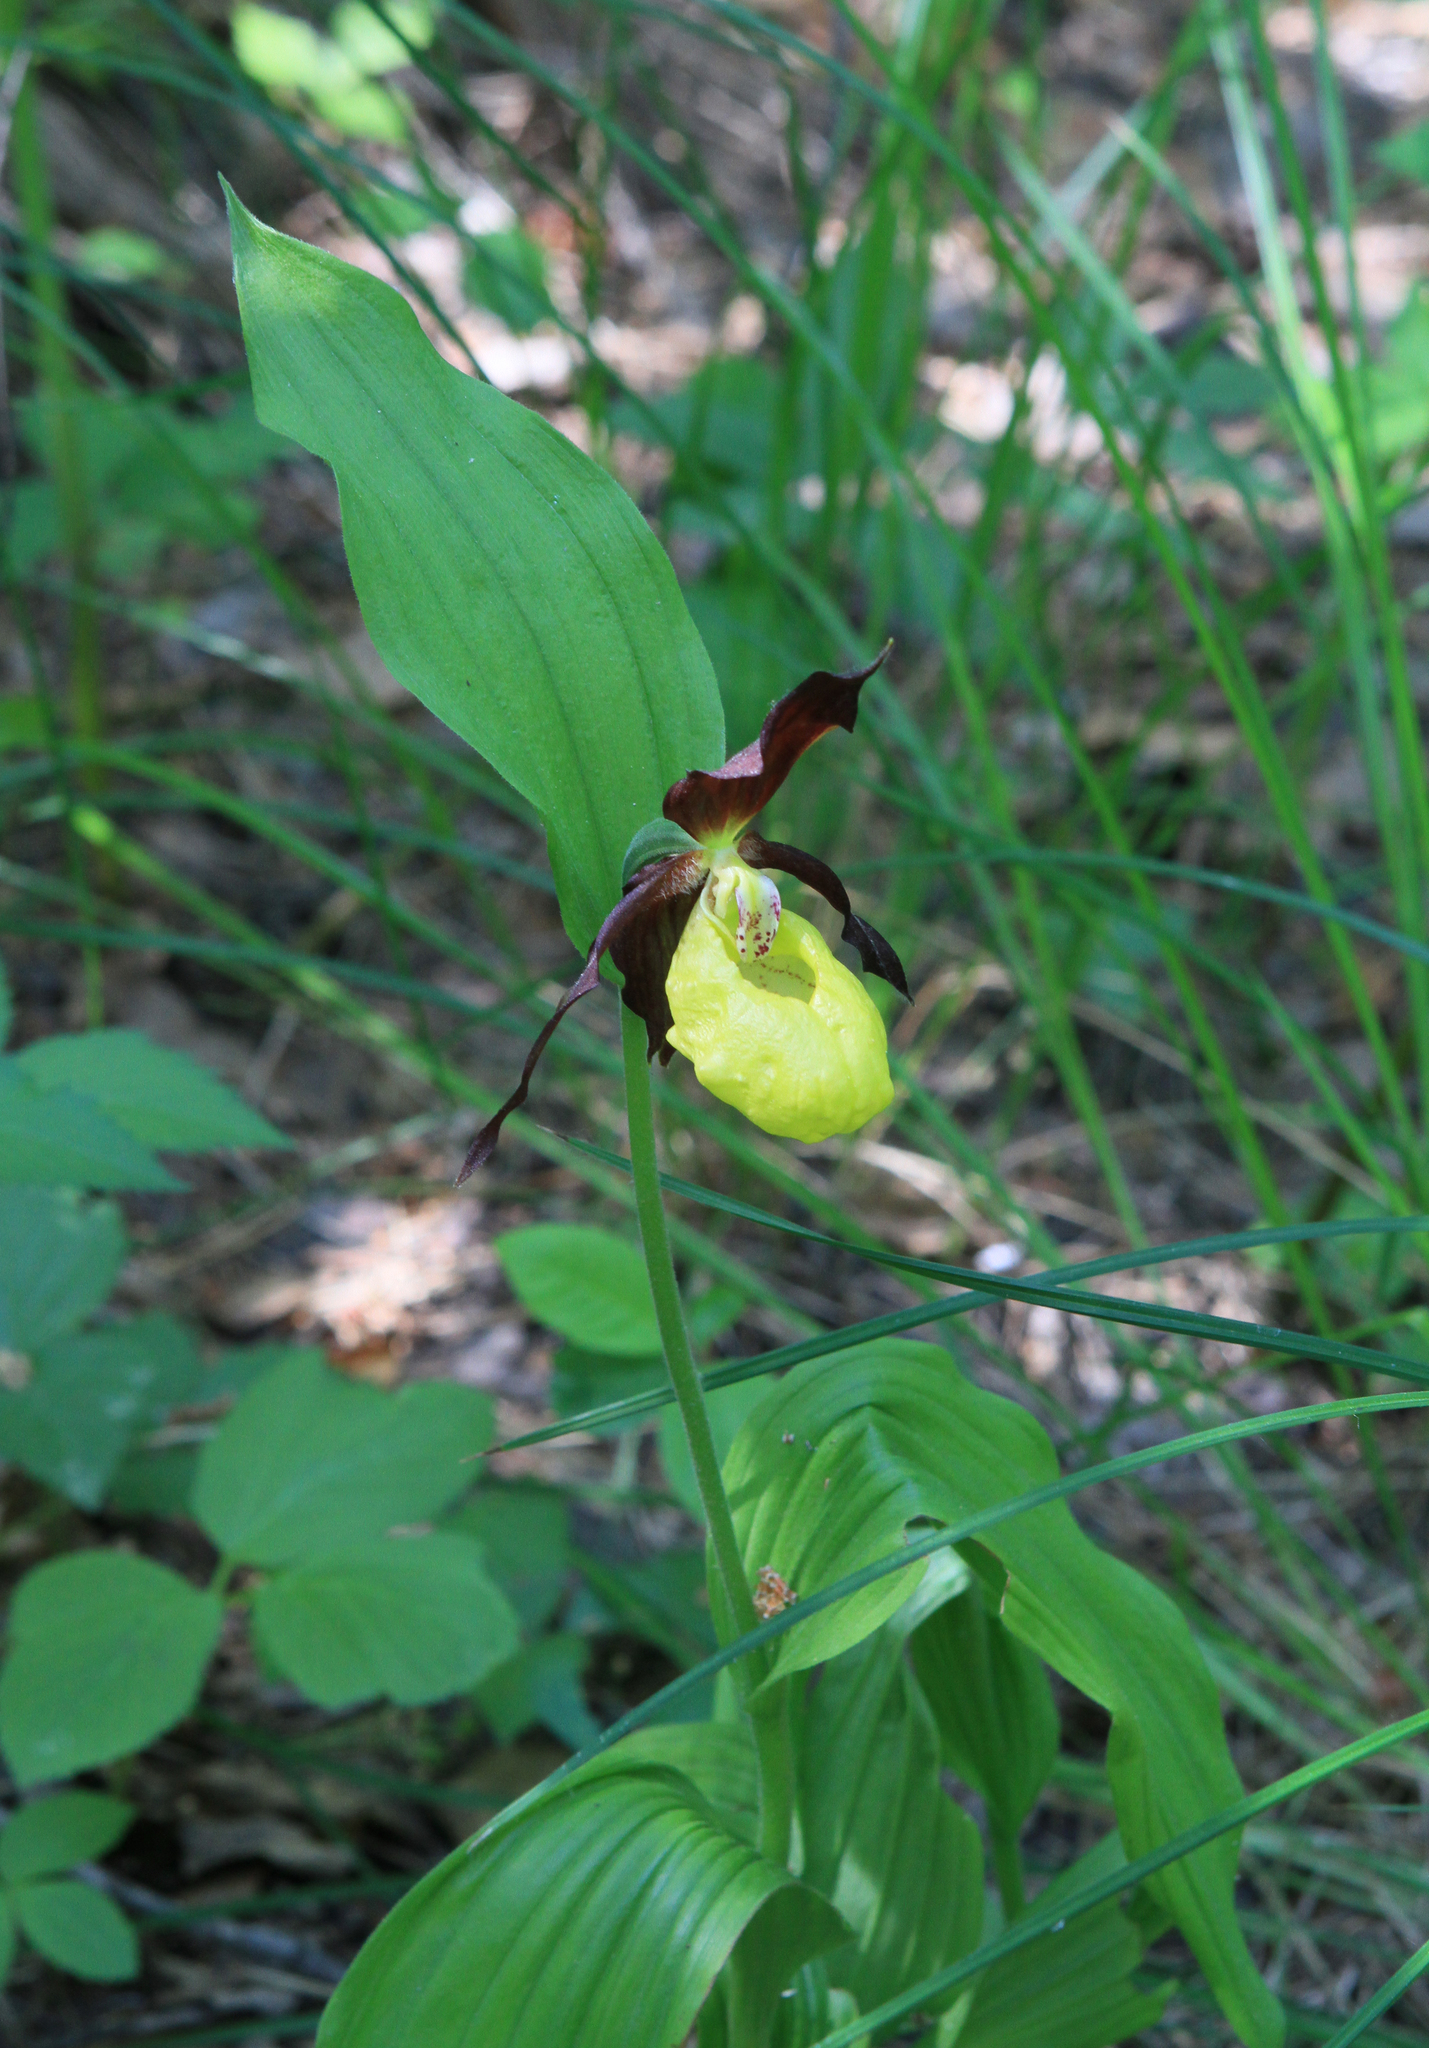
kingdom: Plantae
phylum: Tracheophyta
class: Liliopsida
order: Asparagales
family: Orchidaceae
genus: Cypripedium
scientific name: Cypripedium calceolus
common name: Lady's-slipper
